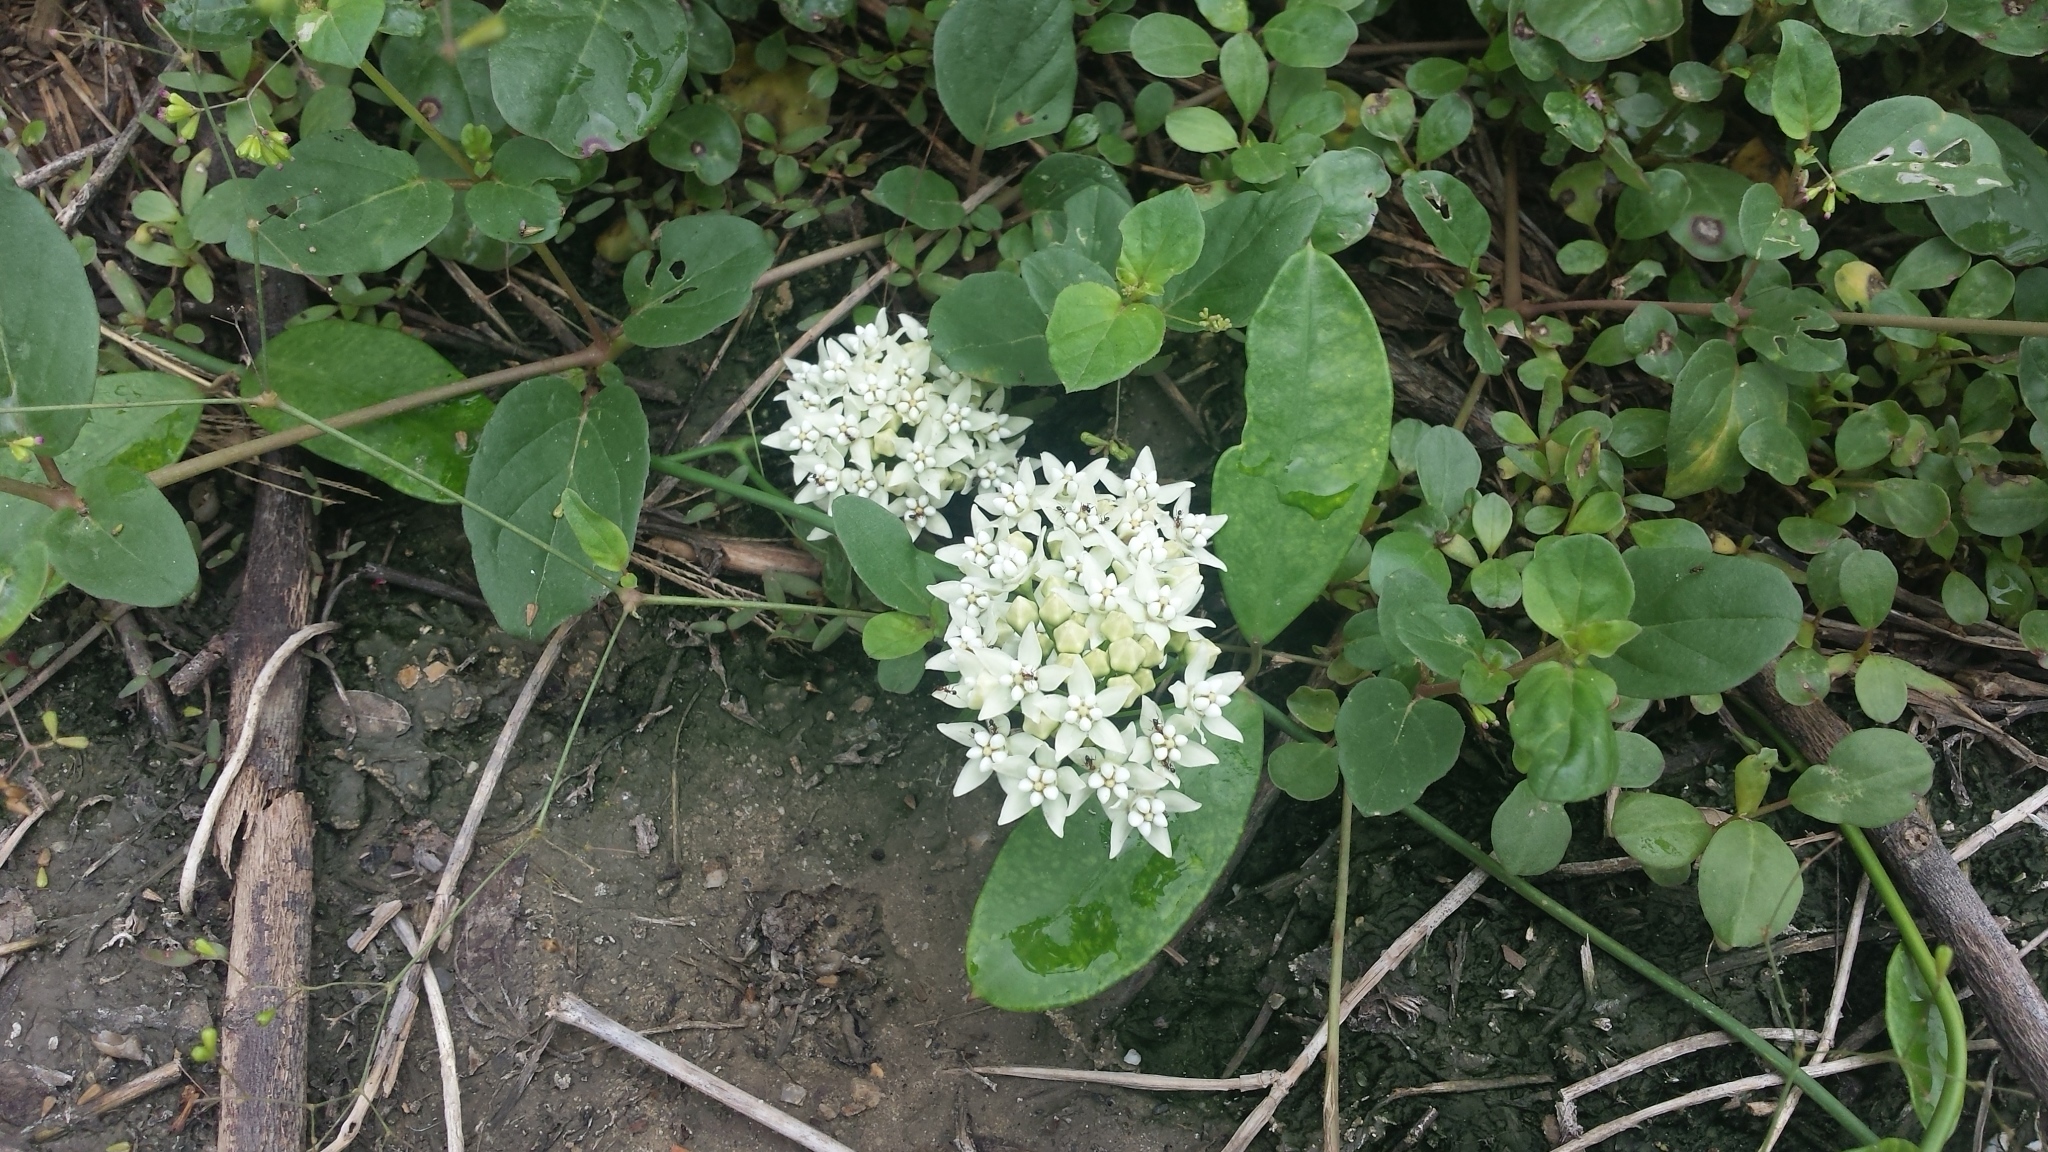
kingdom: Plantae
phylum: Tracheophyta
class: Magnoliopsida
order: Gentianales
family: Apocynaceae
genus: Funastrum
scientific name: Funastrum glaucum
